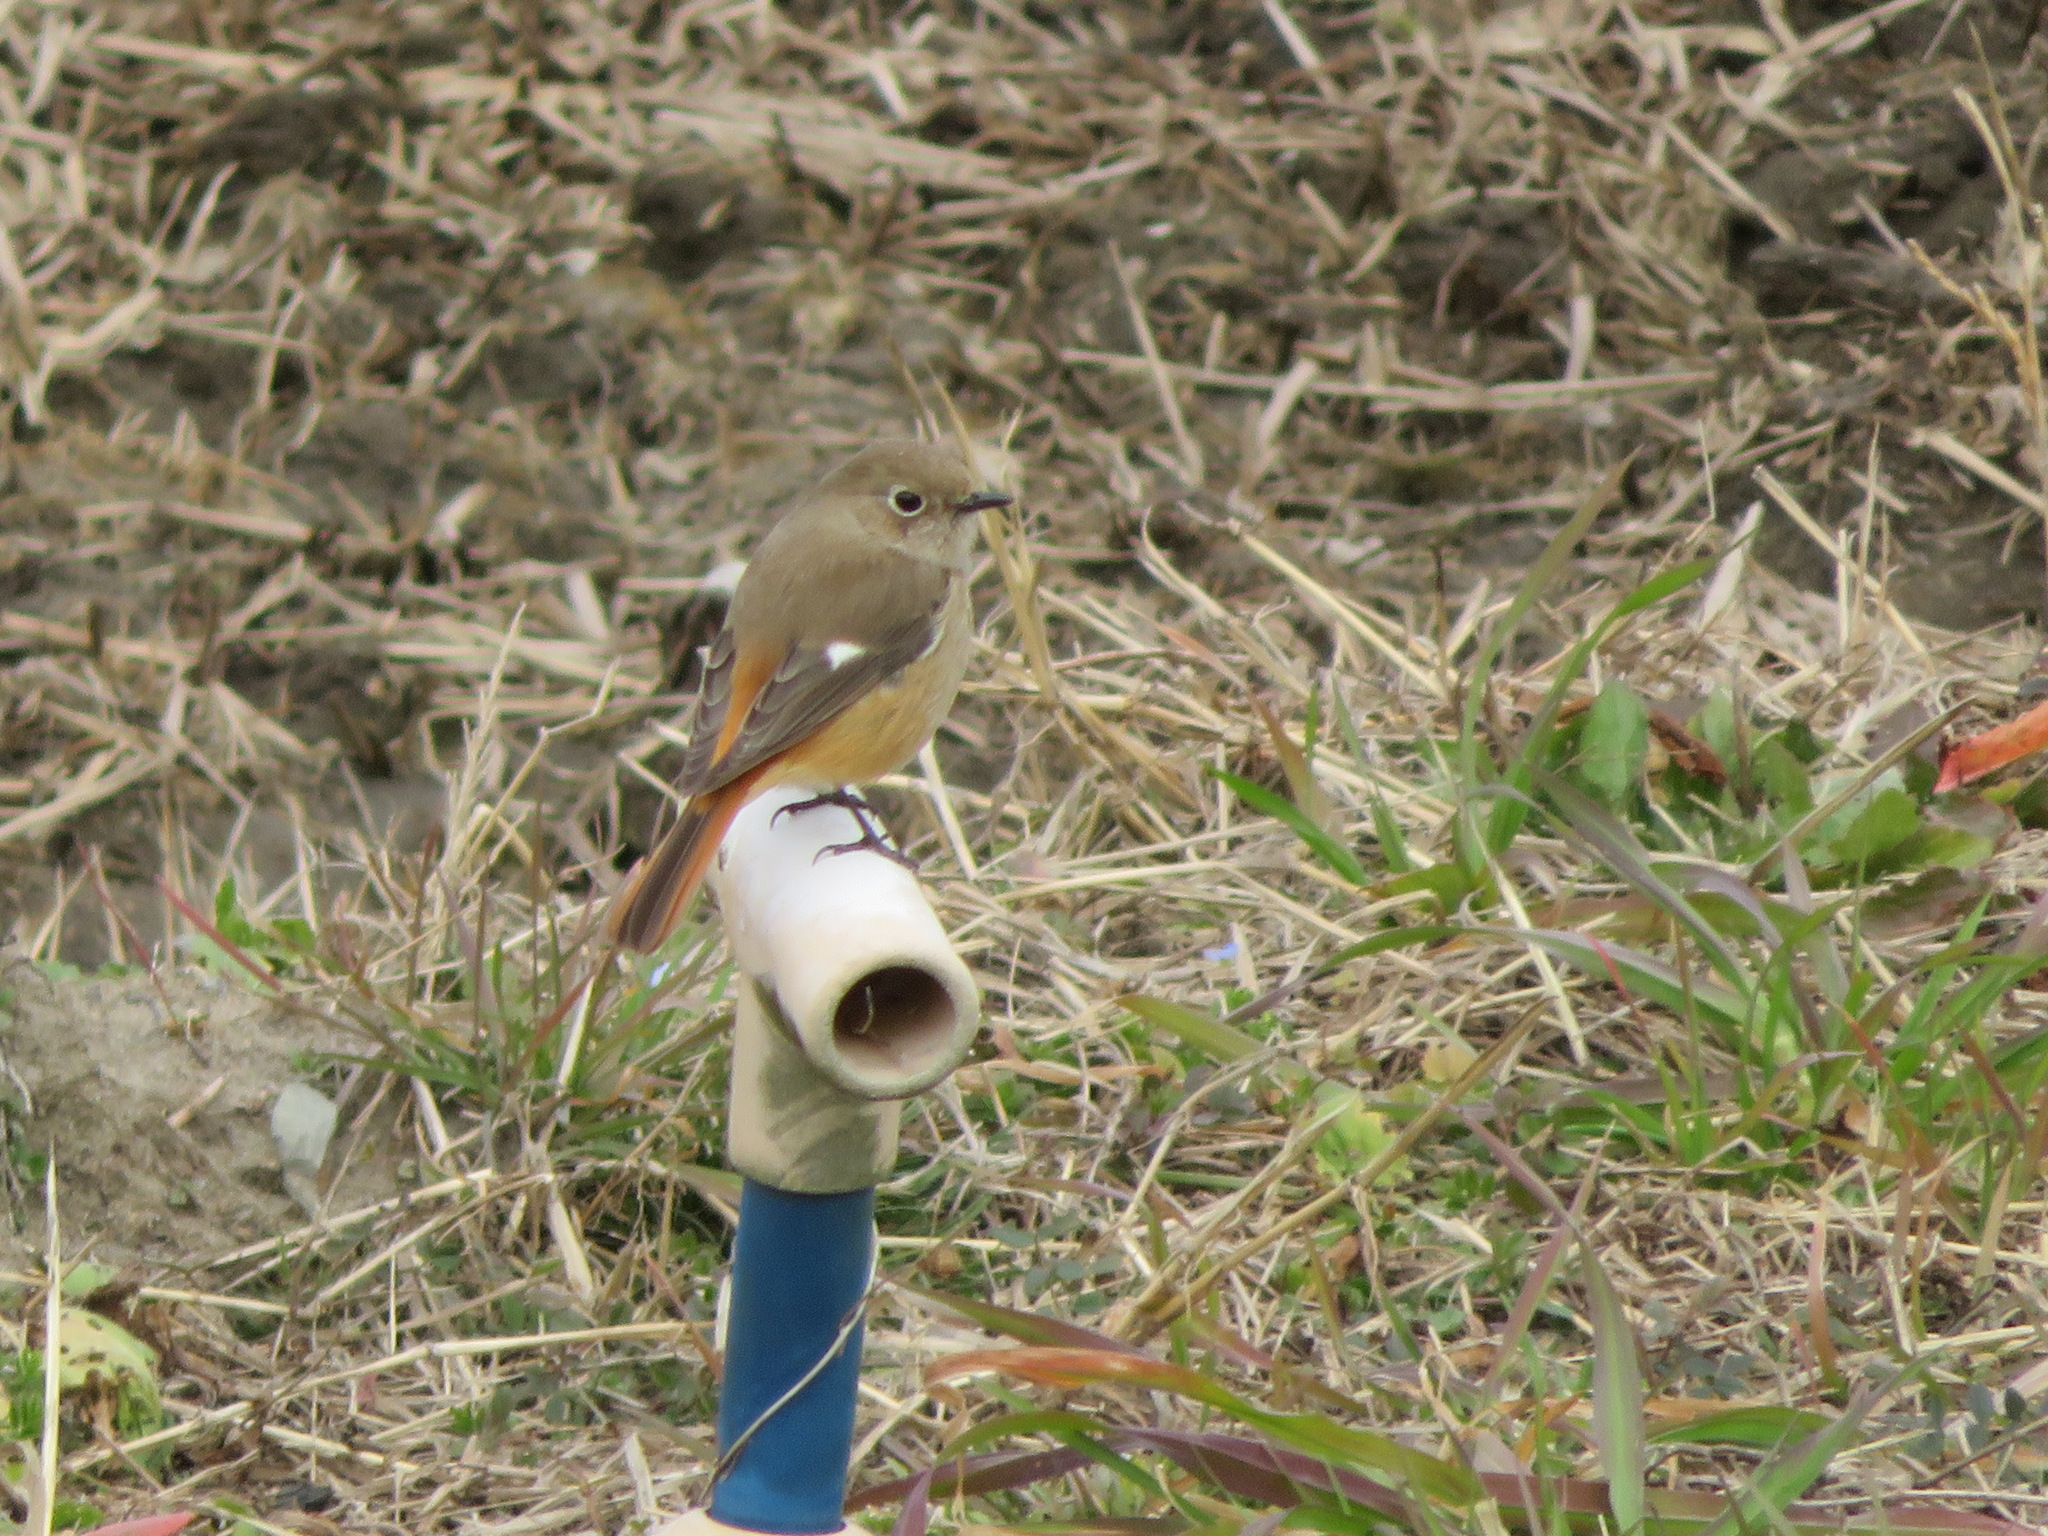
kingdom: Animalia
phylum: Chordata
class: Aves
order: Passeriformes
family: Muscicapidae
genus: Phoenicurus
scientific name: Phoenicurus auroreus
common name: Daurian redstart
